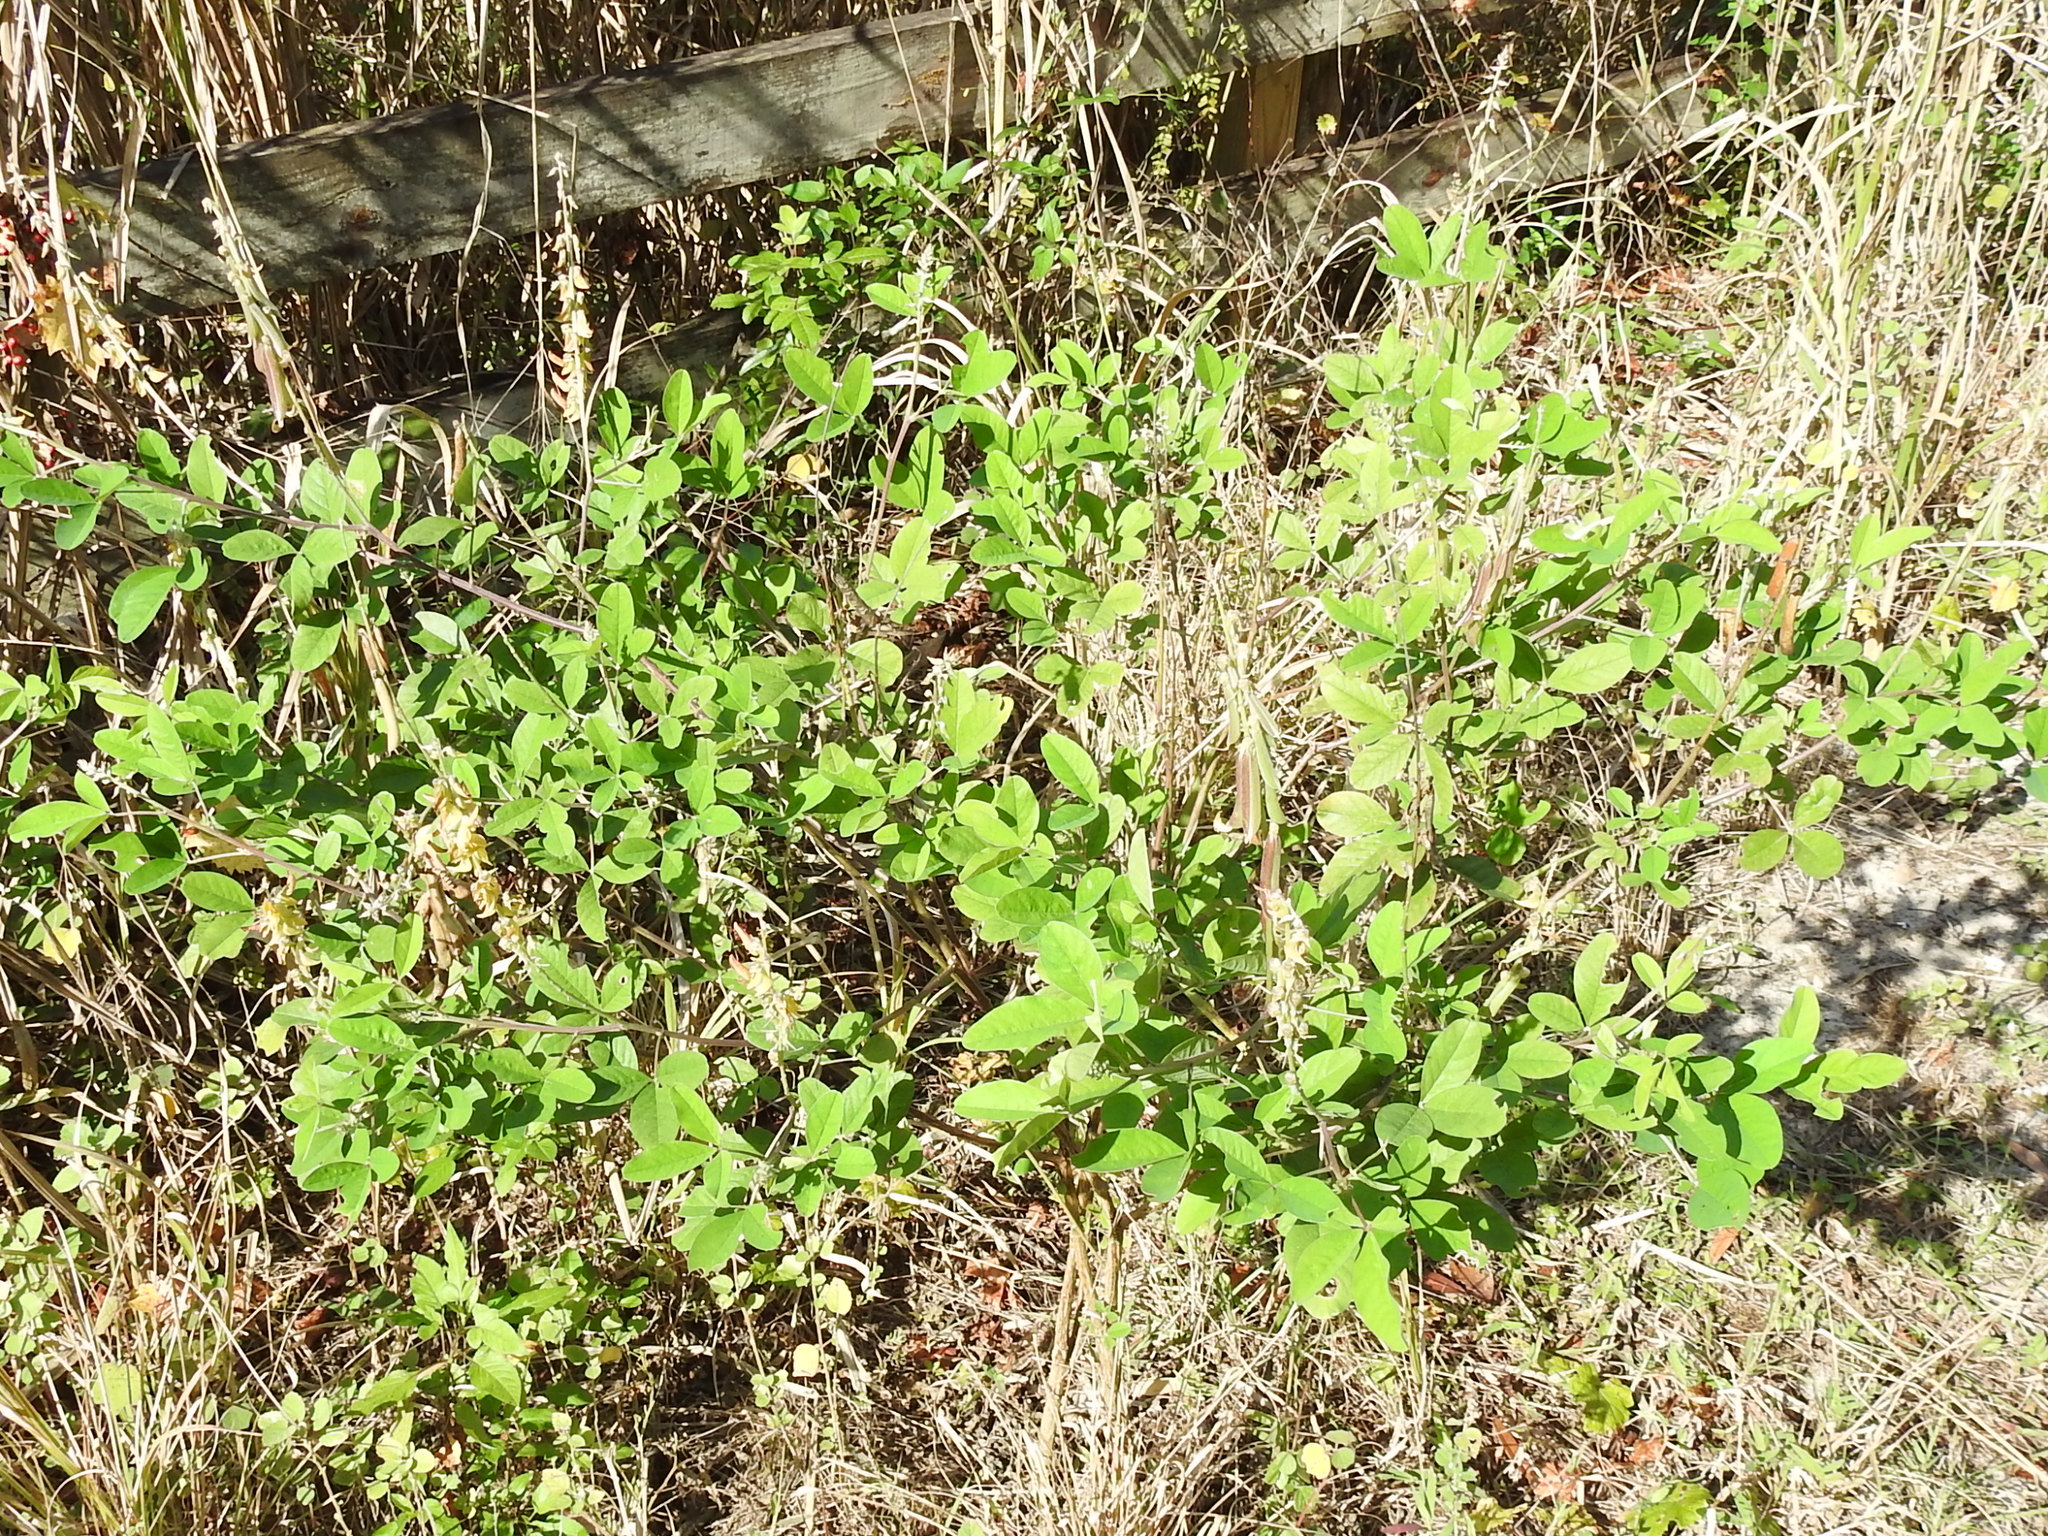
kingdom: Plantae
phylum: Tracheophyta
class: Magnoliopsida
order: Fabales
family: Fabaceae
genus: Crotalaria
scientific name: Crotalaria pallida
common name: Smooth rattlebox
